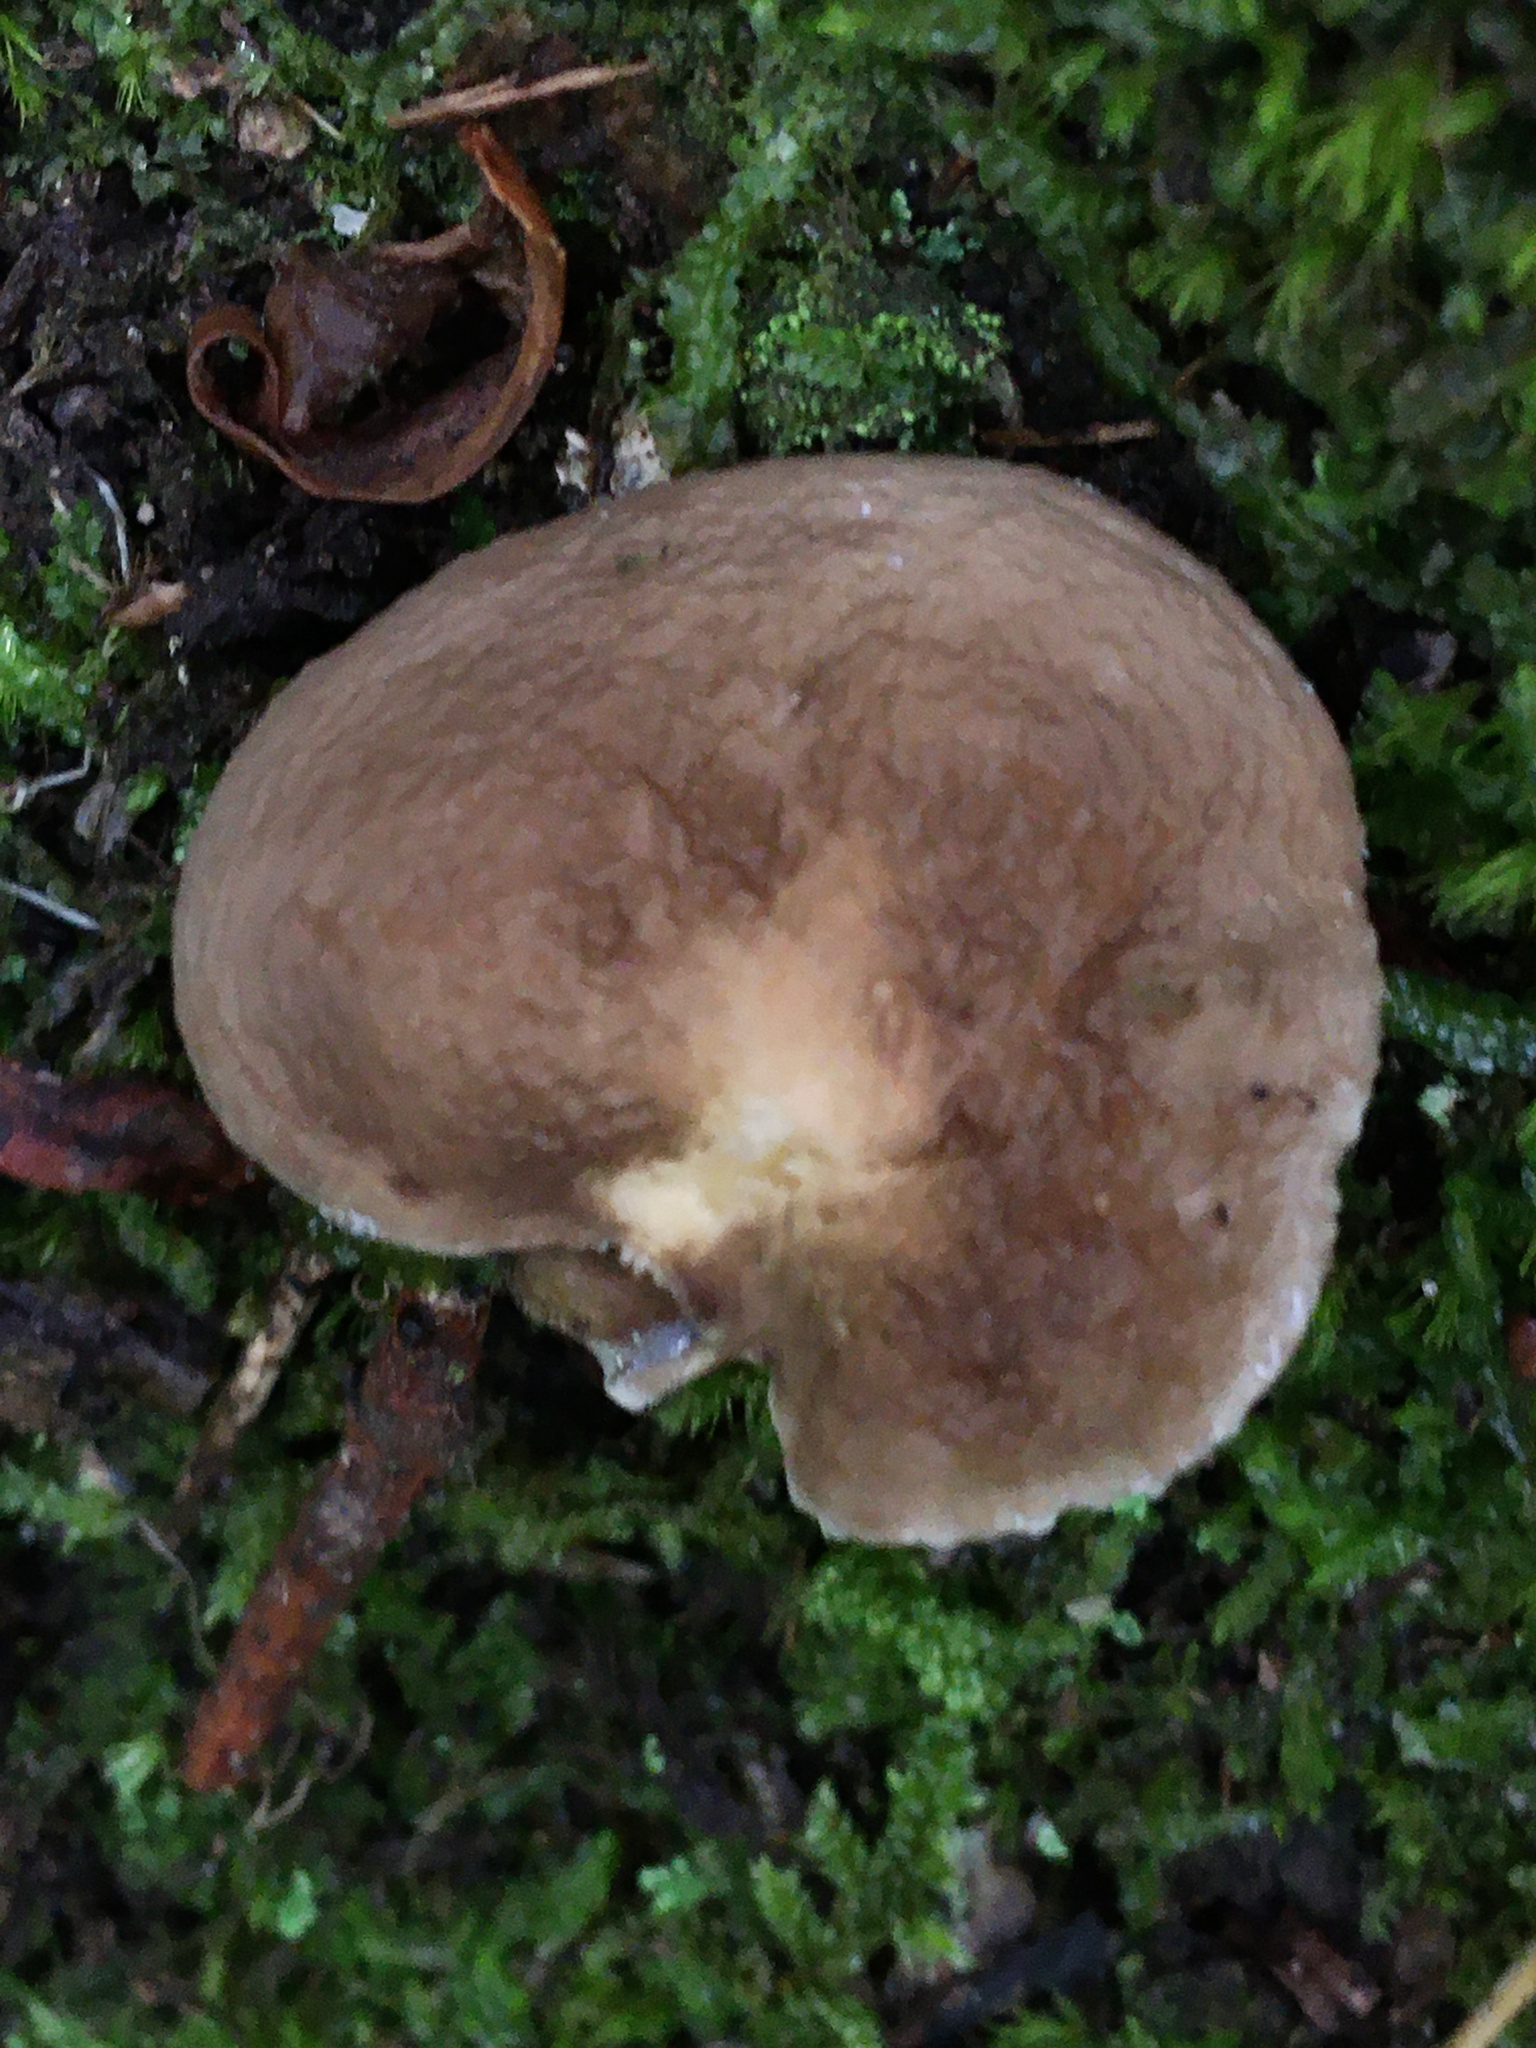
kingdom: Fungi
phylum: Basidiomycota
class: Agaricomycetes
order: Russulales
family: Russulaceae
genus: Lactarius
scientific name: Lactarius gerardii
